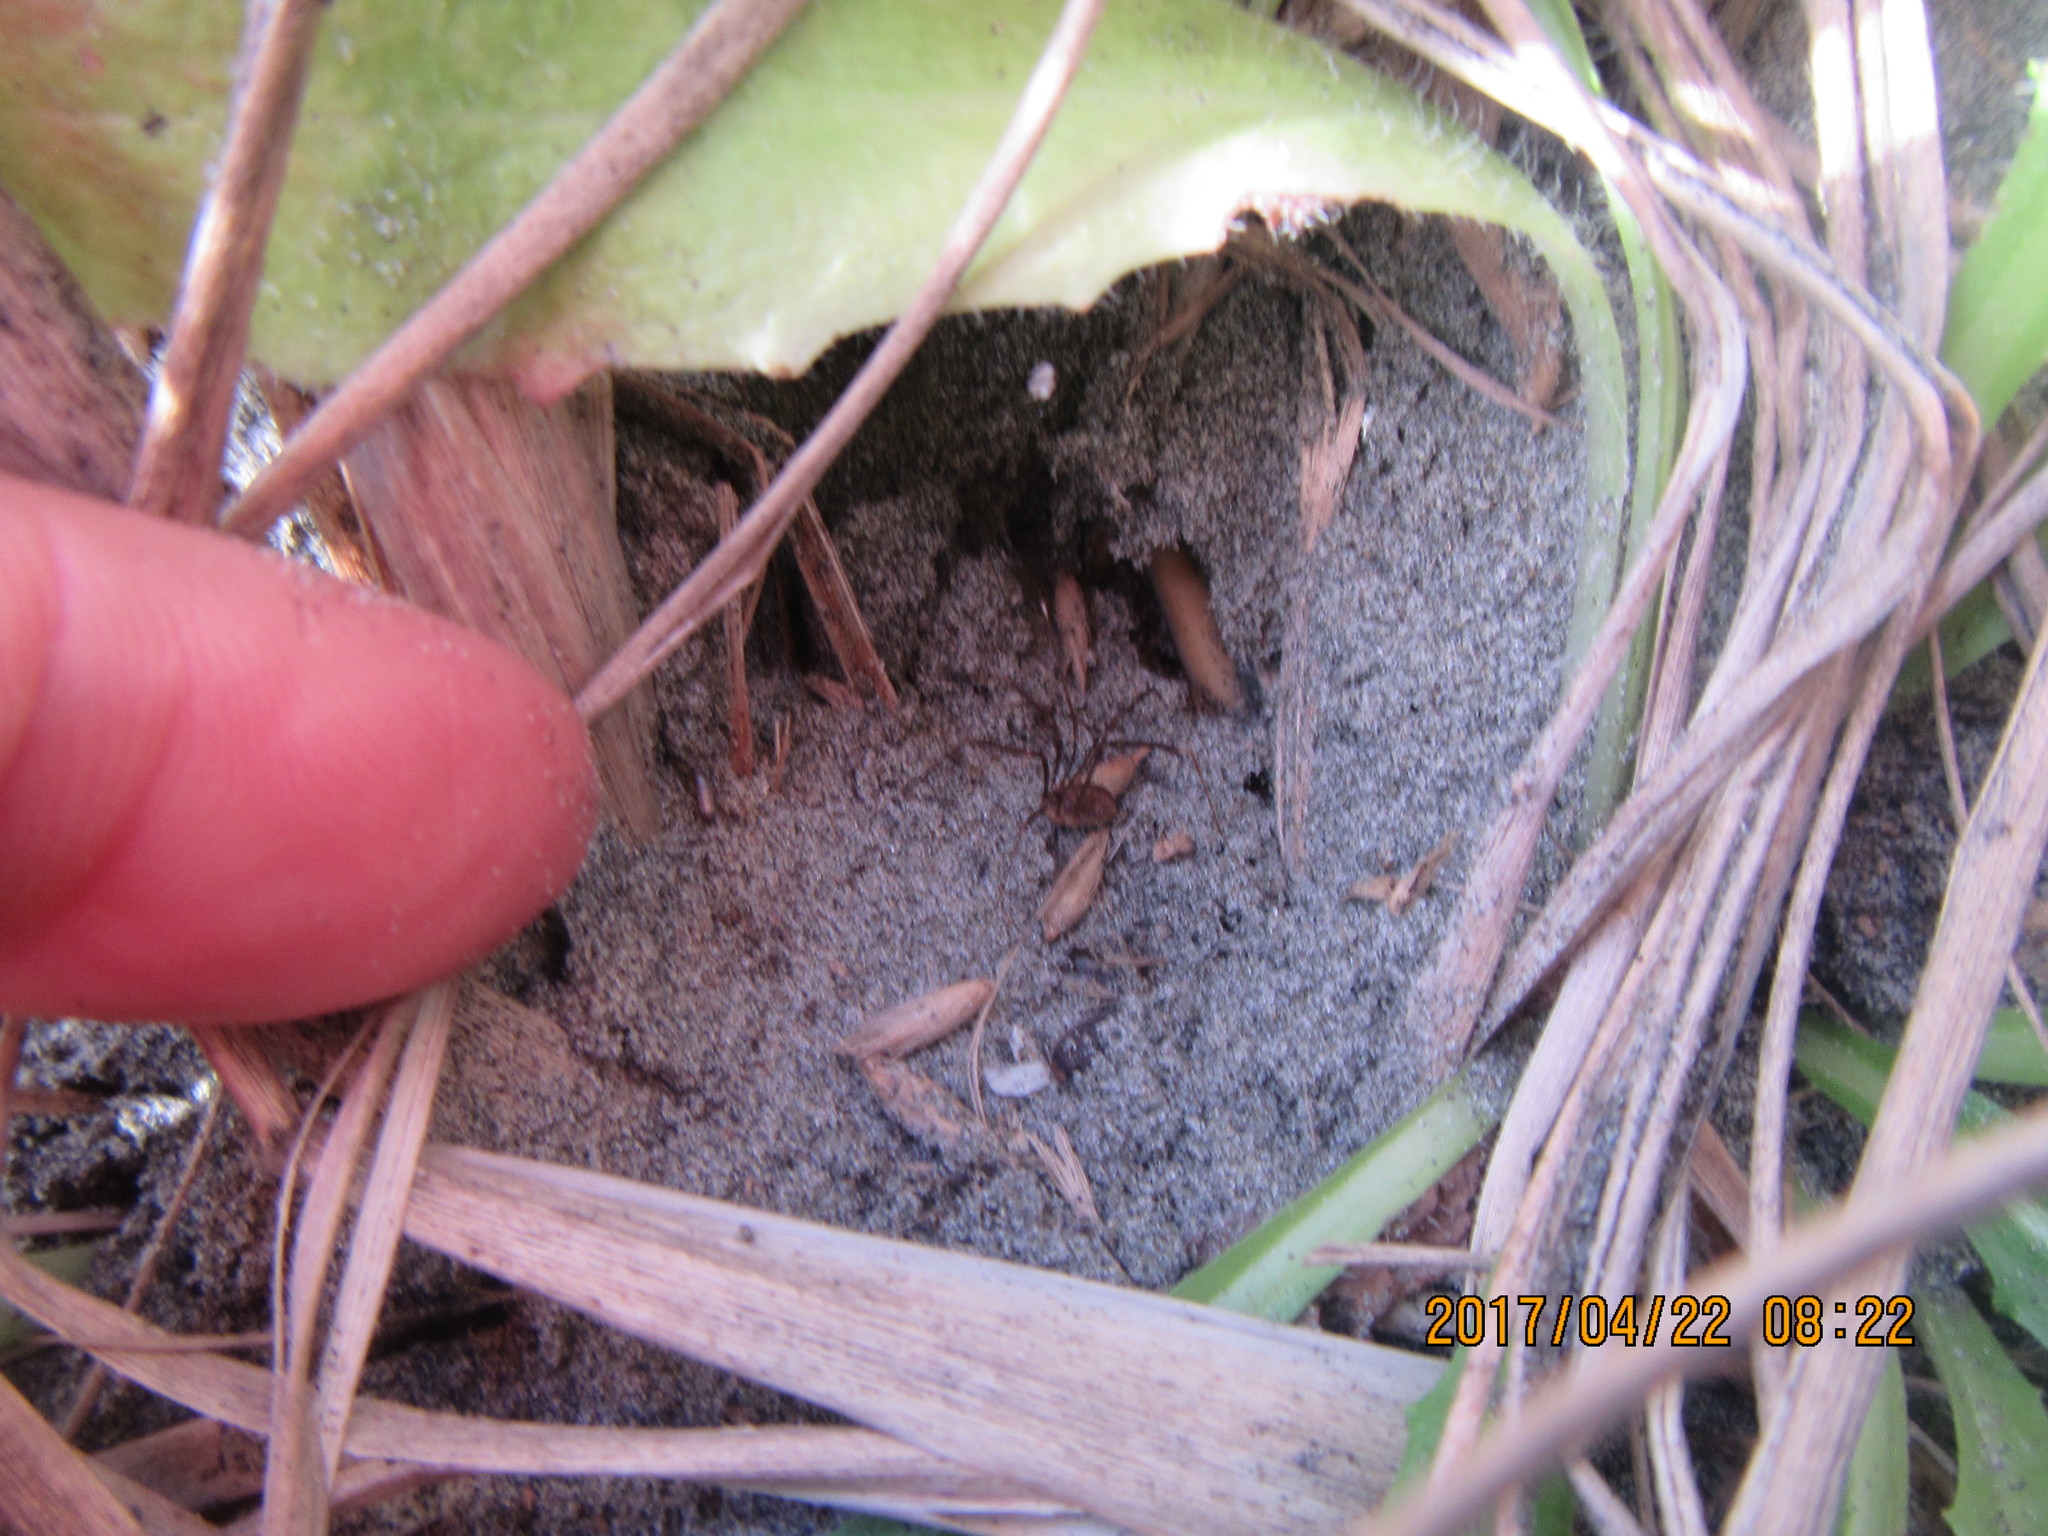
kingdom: Animalia
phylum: Arthropoda
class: Arachnida
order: Opiliones
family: Phalangiidae
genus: Phalangium
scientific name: Phalangium opilio
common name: Daddy longleg
